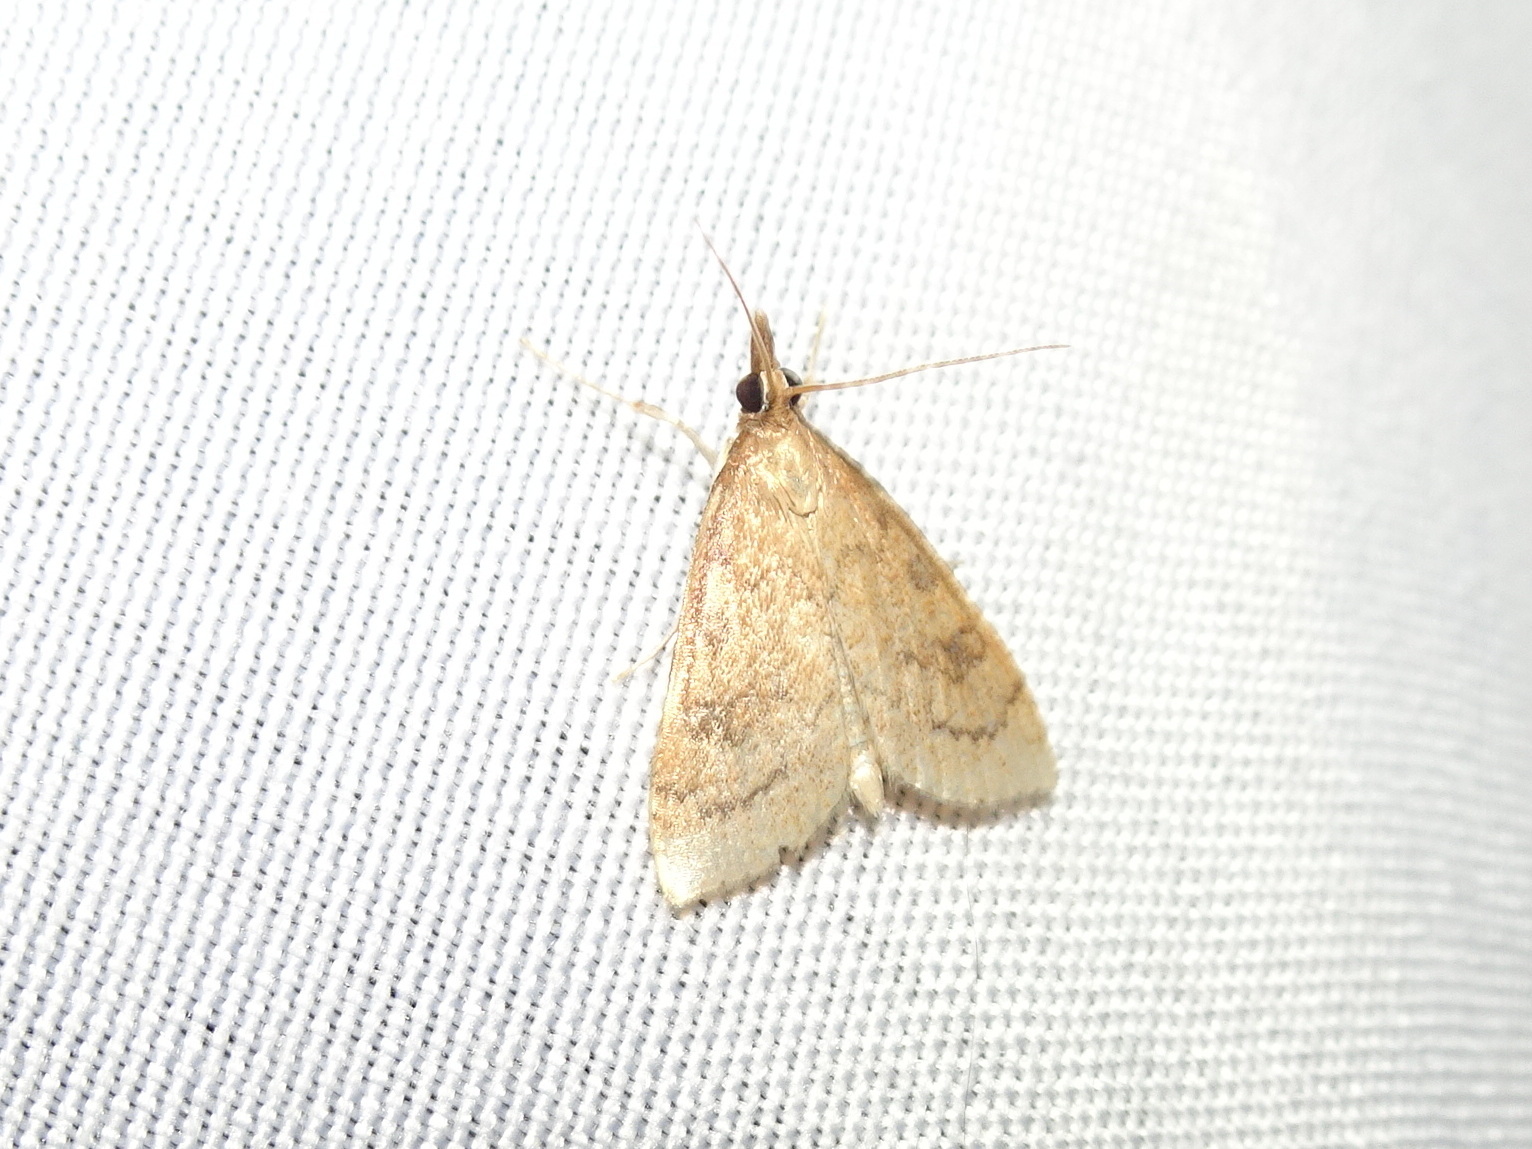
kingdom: Animalia
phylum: Arthropoda
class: Insecta
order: Lepidoptera
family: Crambidae
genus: Udea
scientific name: Udea rubigalis
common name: Celery leaftier moth
